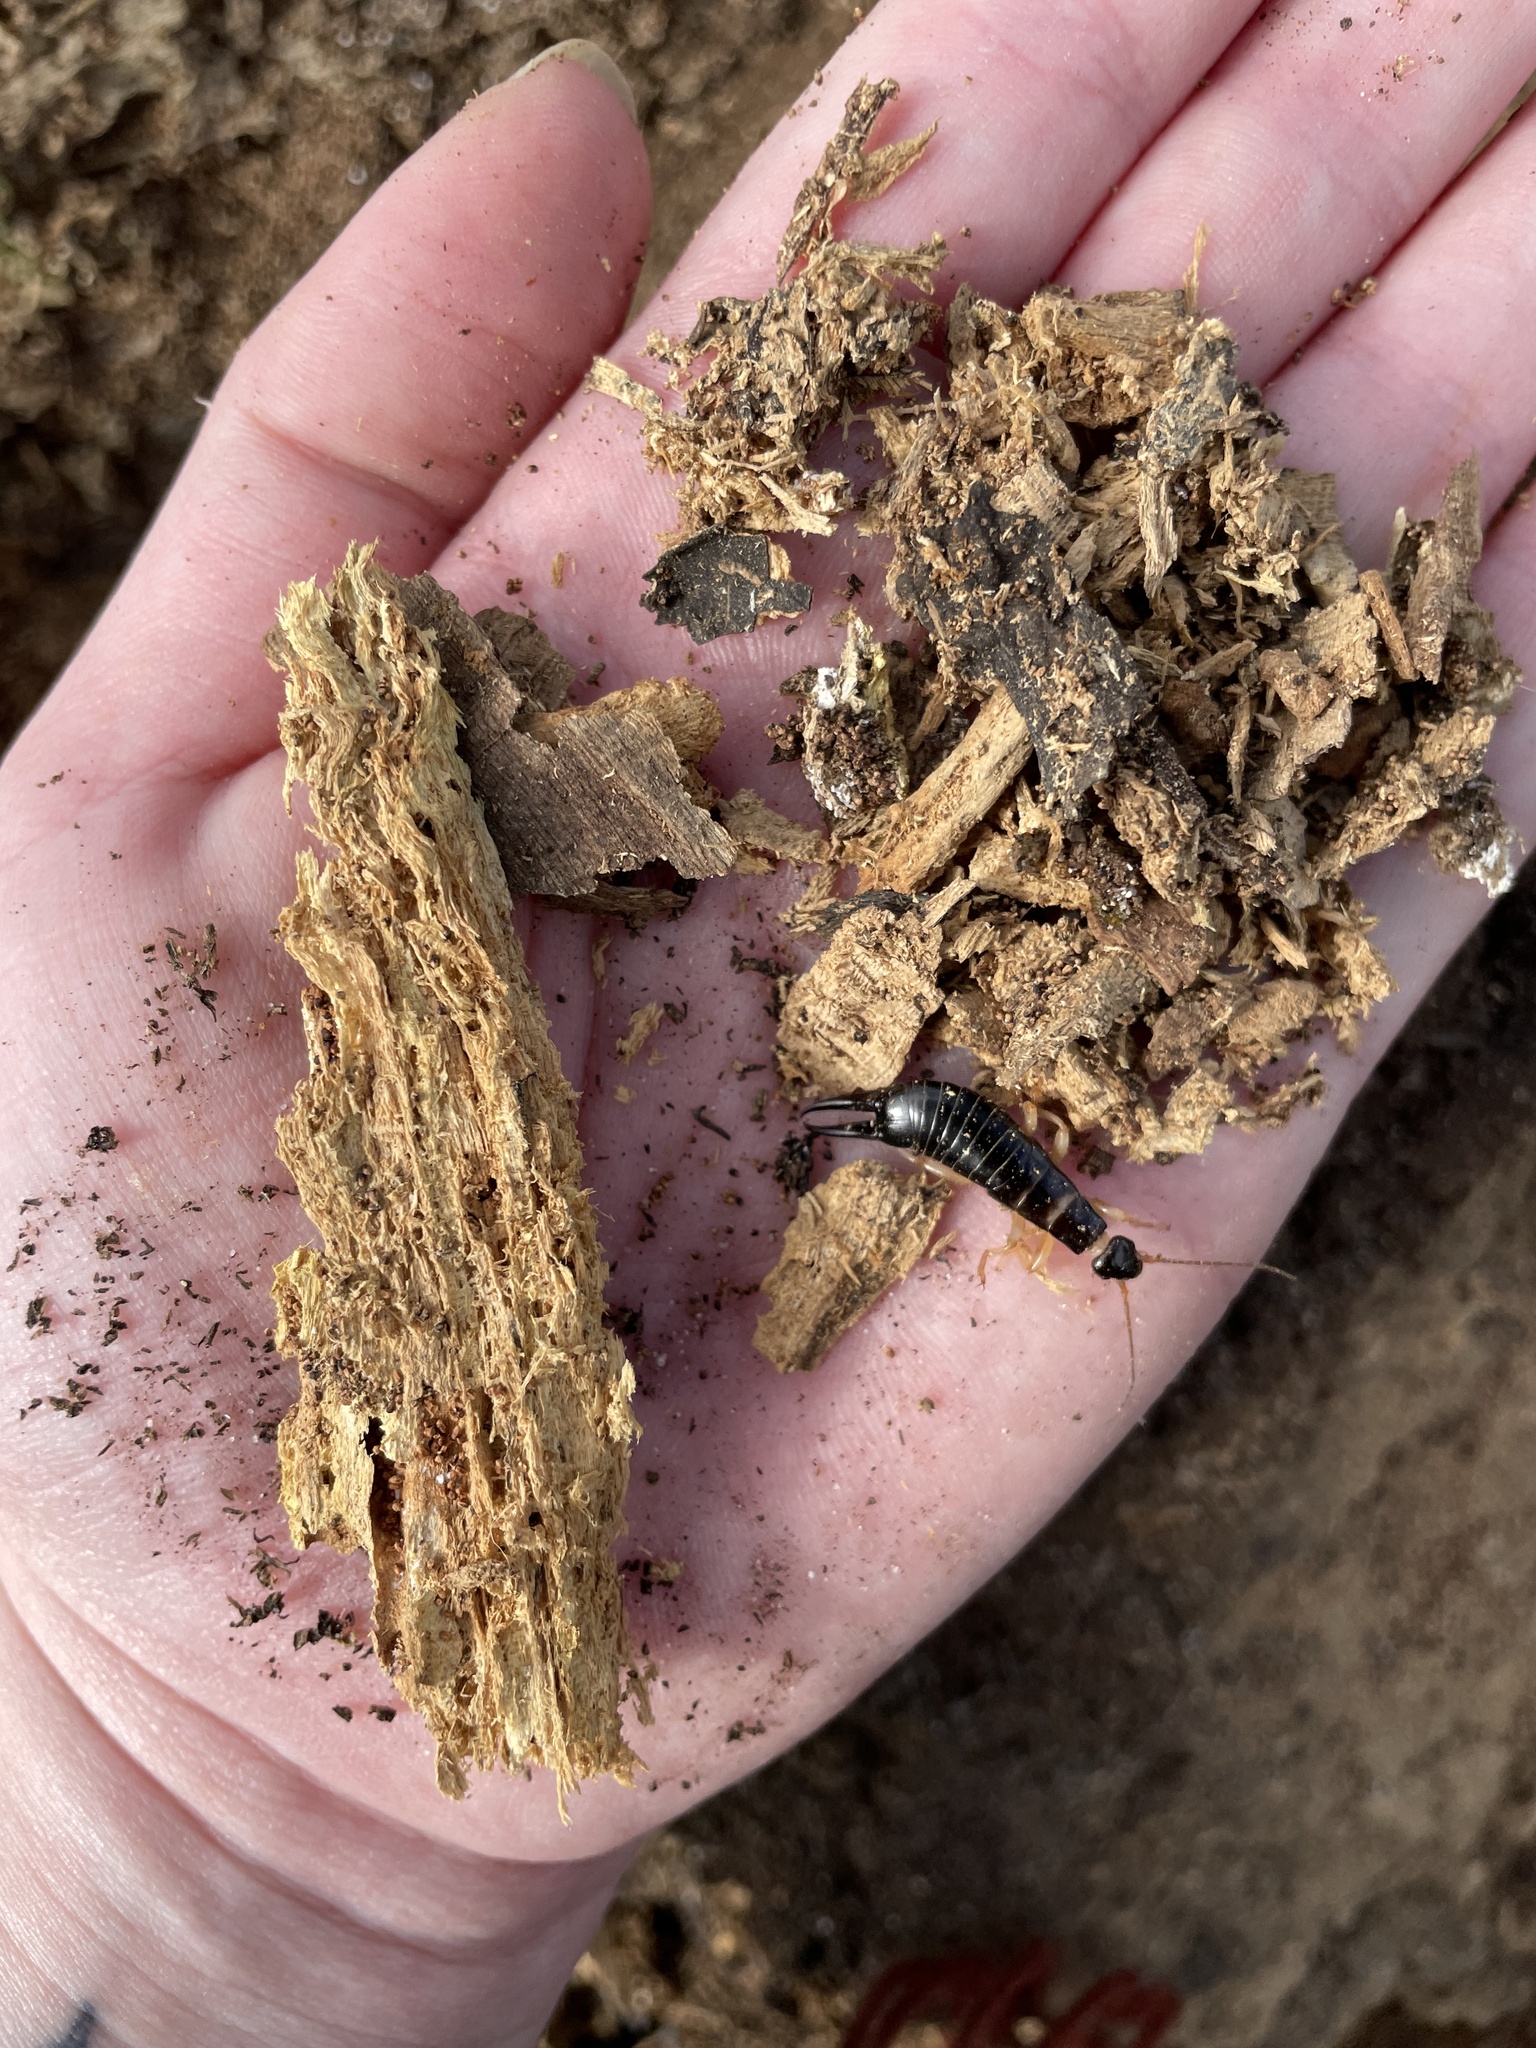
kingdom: Animalia
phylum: Arthropoda
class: Insecta
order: Dermaptera
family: Anisolabididae
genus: Anisolabis
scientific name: Anisolabis littorea
